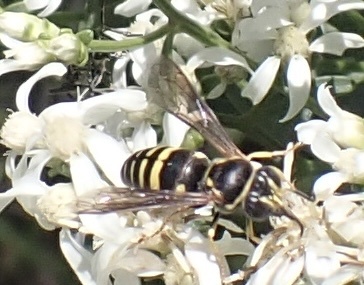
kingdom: Animalia
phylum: Arthropoda
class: Insecta
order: Hymenoptera
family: Crabronidae
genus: Bicyrtes
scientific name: Bicyrtes fodiens
